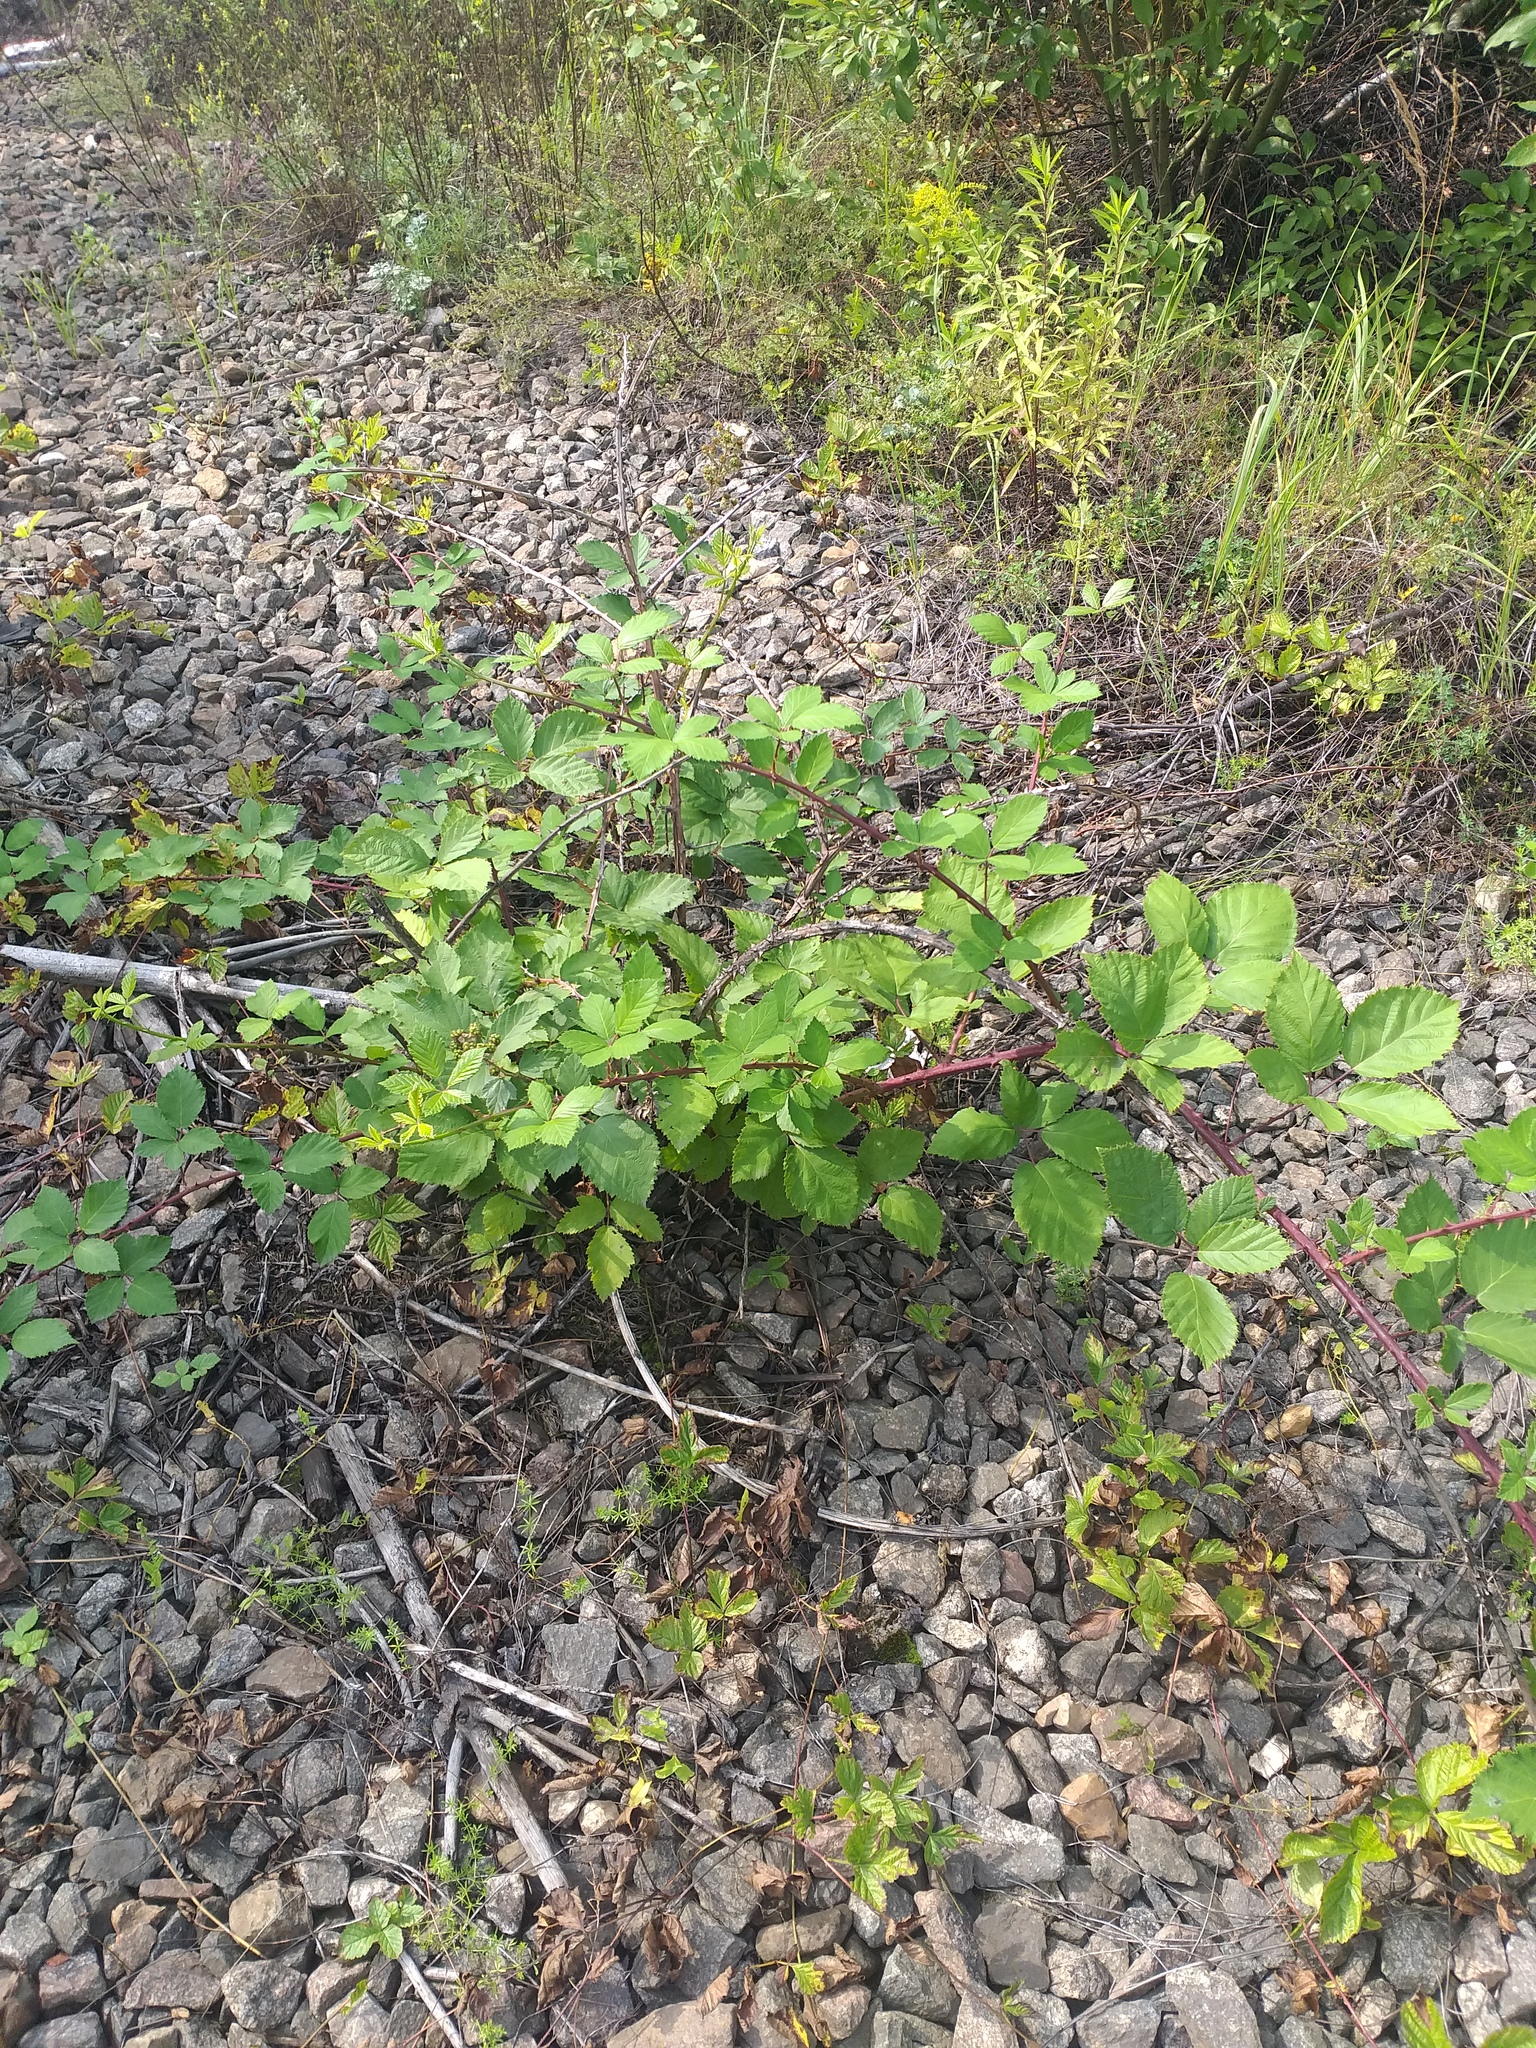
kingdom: Plantae
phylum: Tracheophyta
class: Magnoliopsida
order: Rosales
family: Rosaceae
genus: Rubus
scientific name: Rubus procerus
